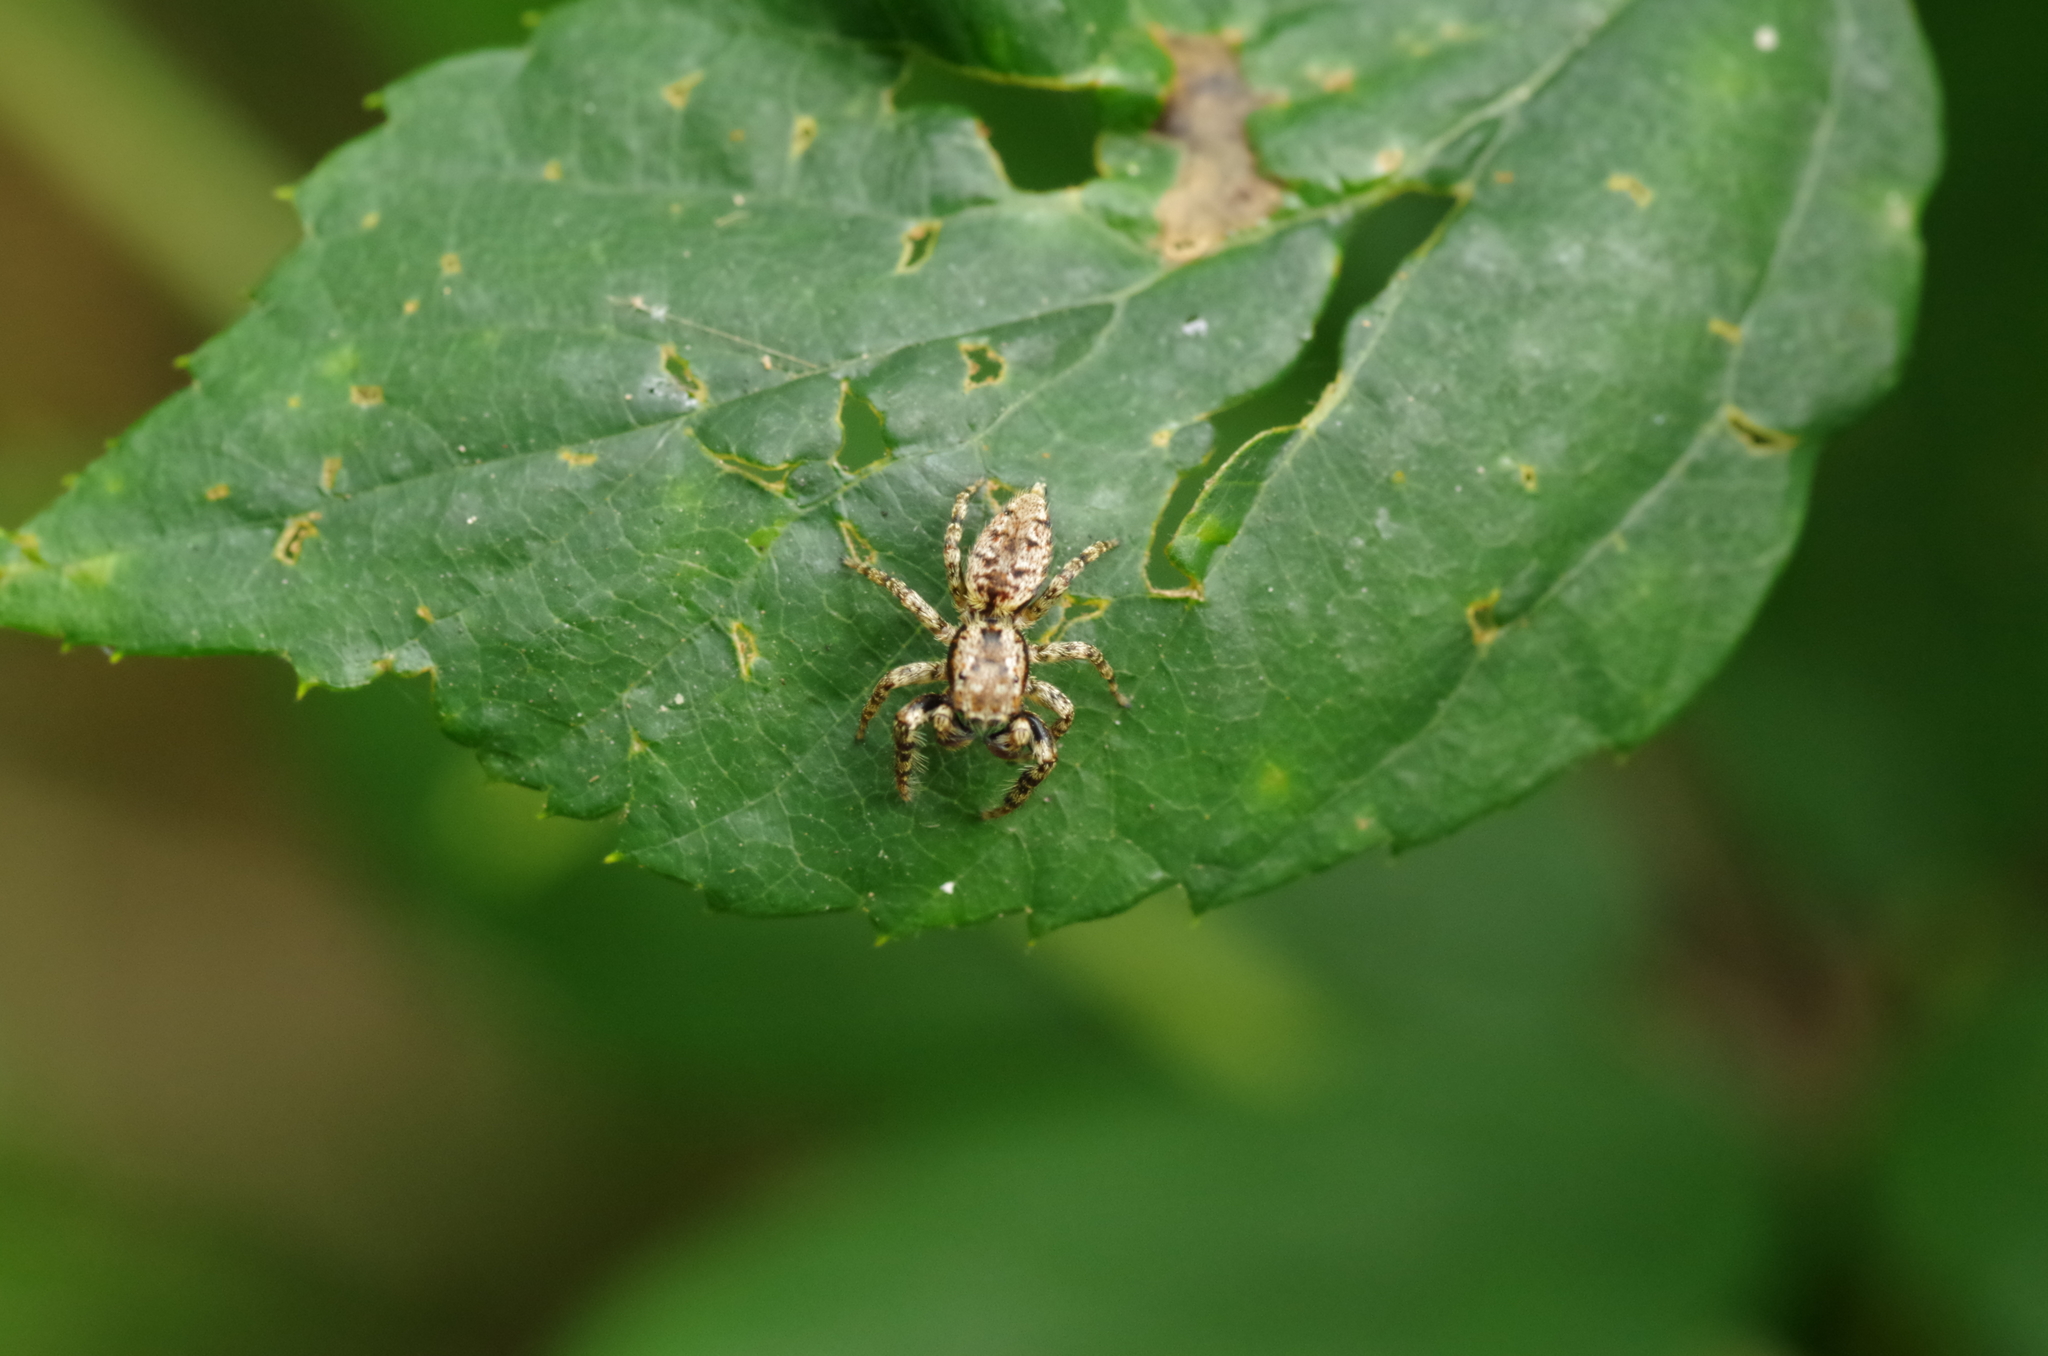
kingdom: Animalia
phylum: Arthropoda
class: Arachnida
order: Araneae
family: Salticidae
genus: Marpissa
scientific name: Marpissa muscosa
